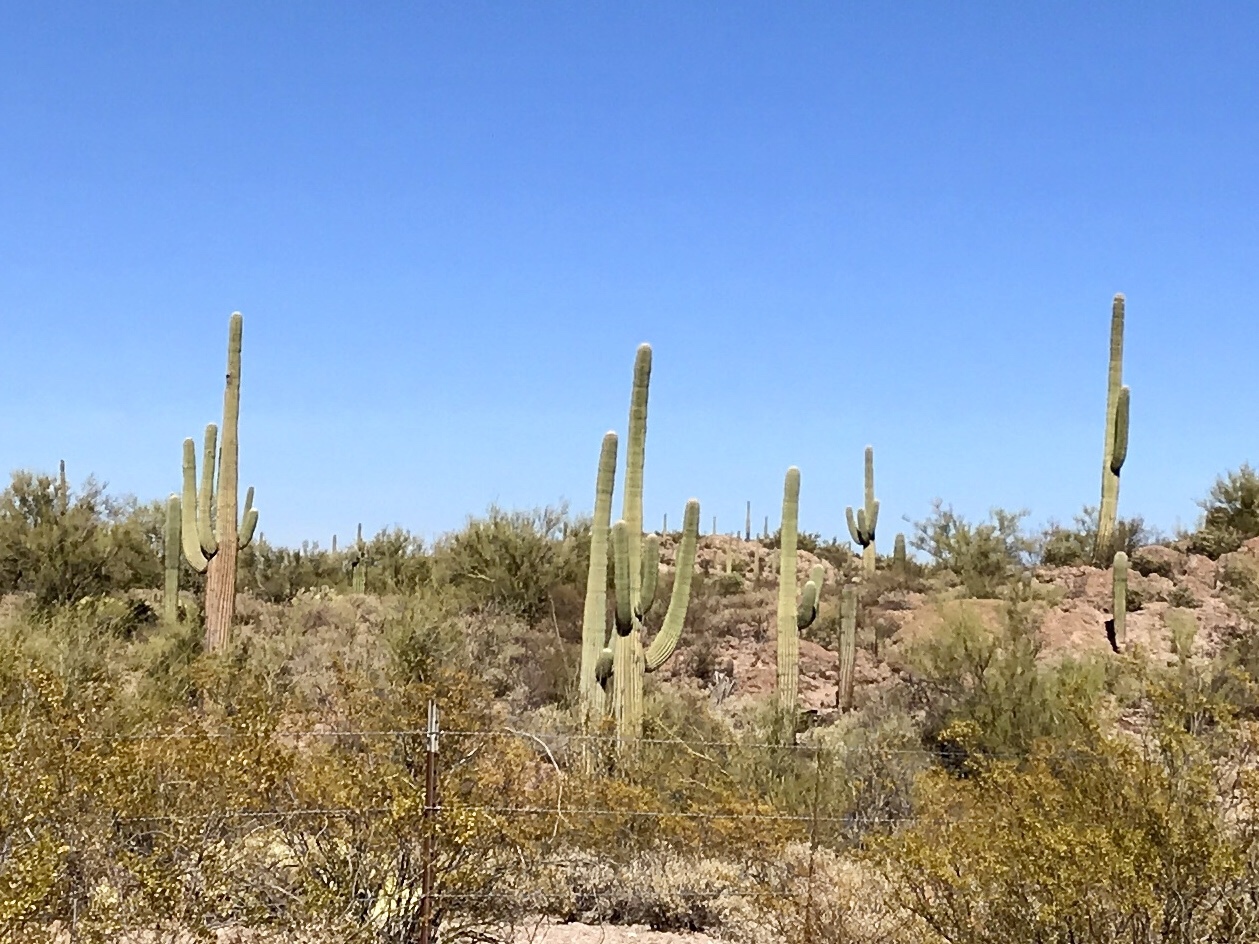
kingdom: Plantae
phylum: Tracheophyta
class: Magnoliopsida
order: Caryophyllales
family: Cactaceae
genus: Carnegiea
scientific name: Carnegiea gigantea
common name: Saguaro
